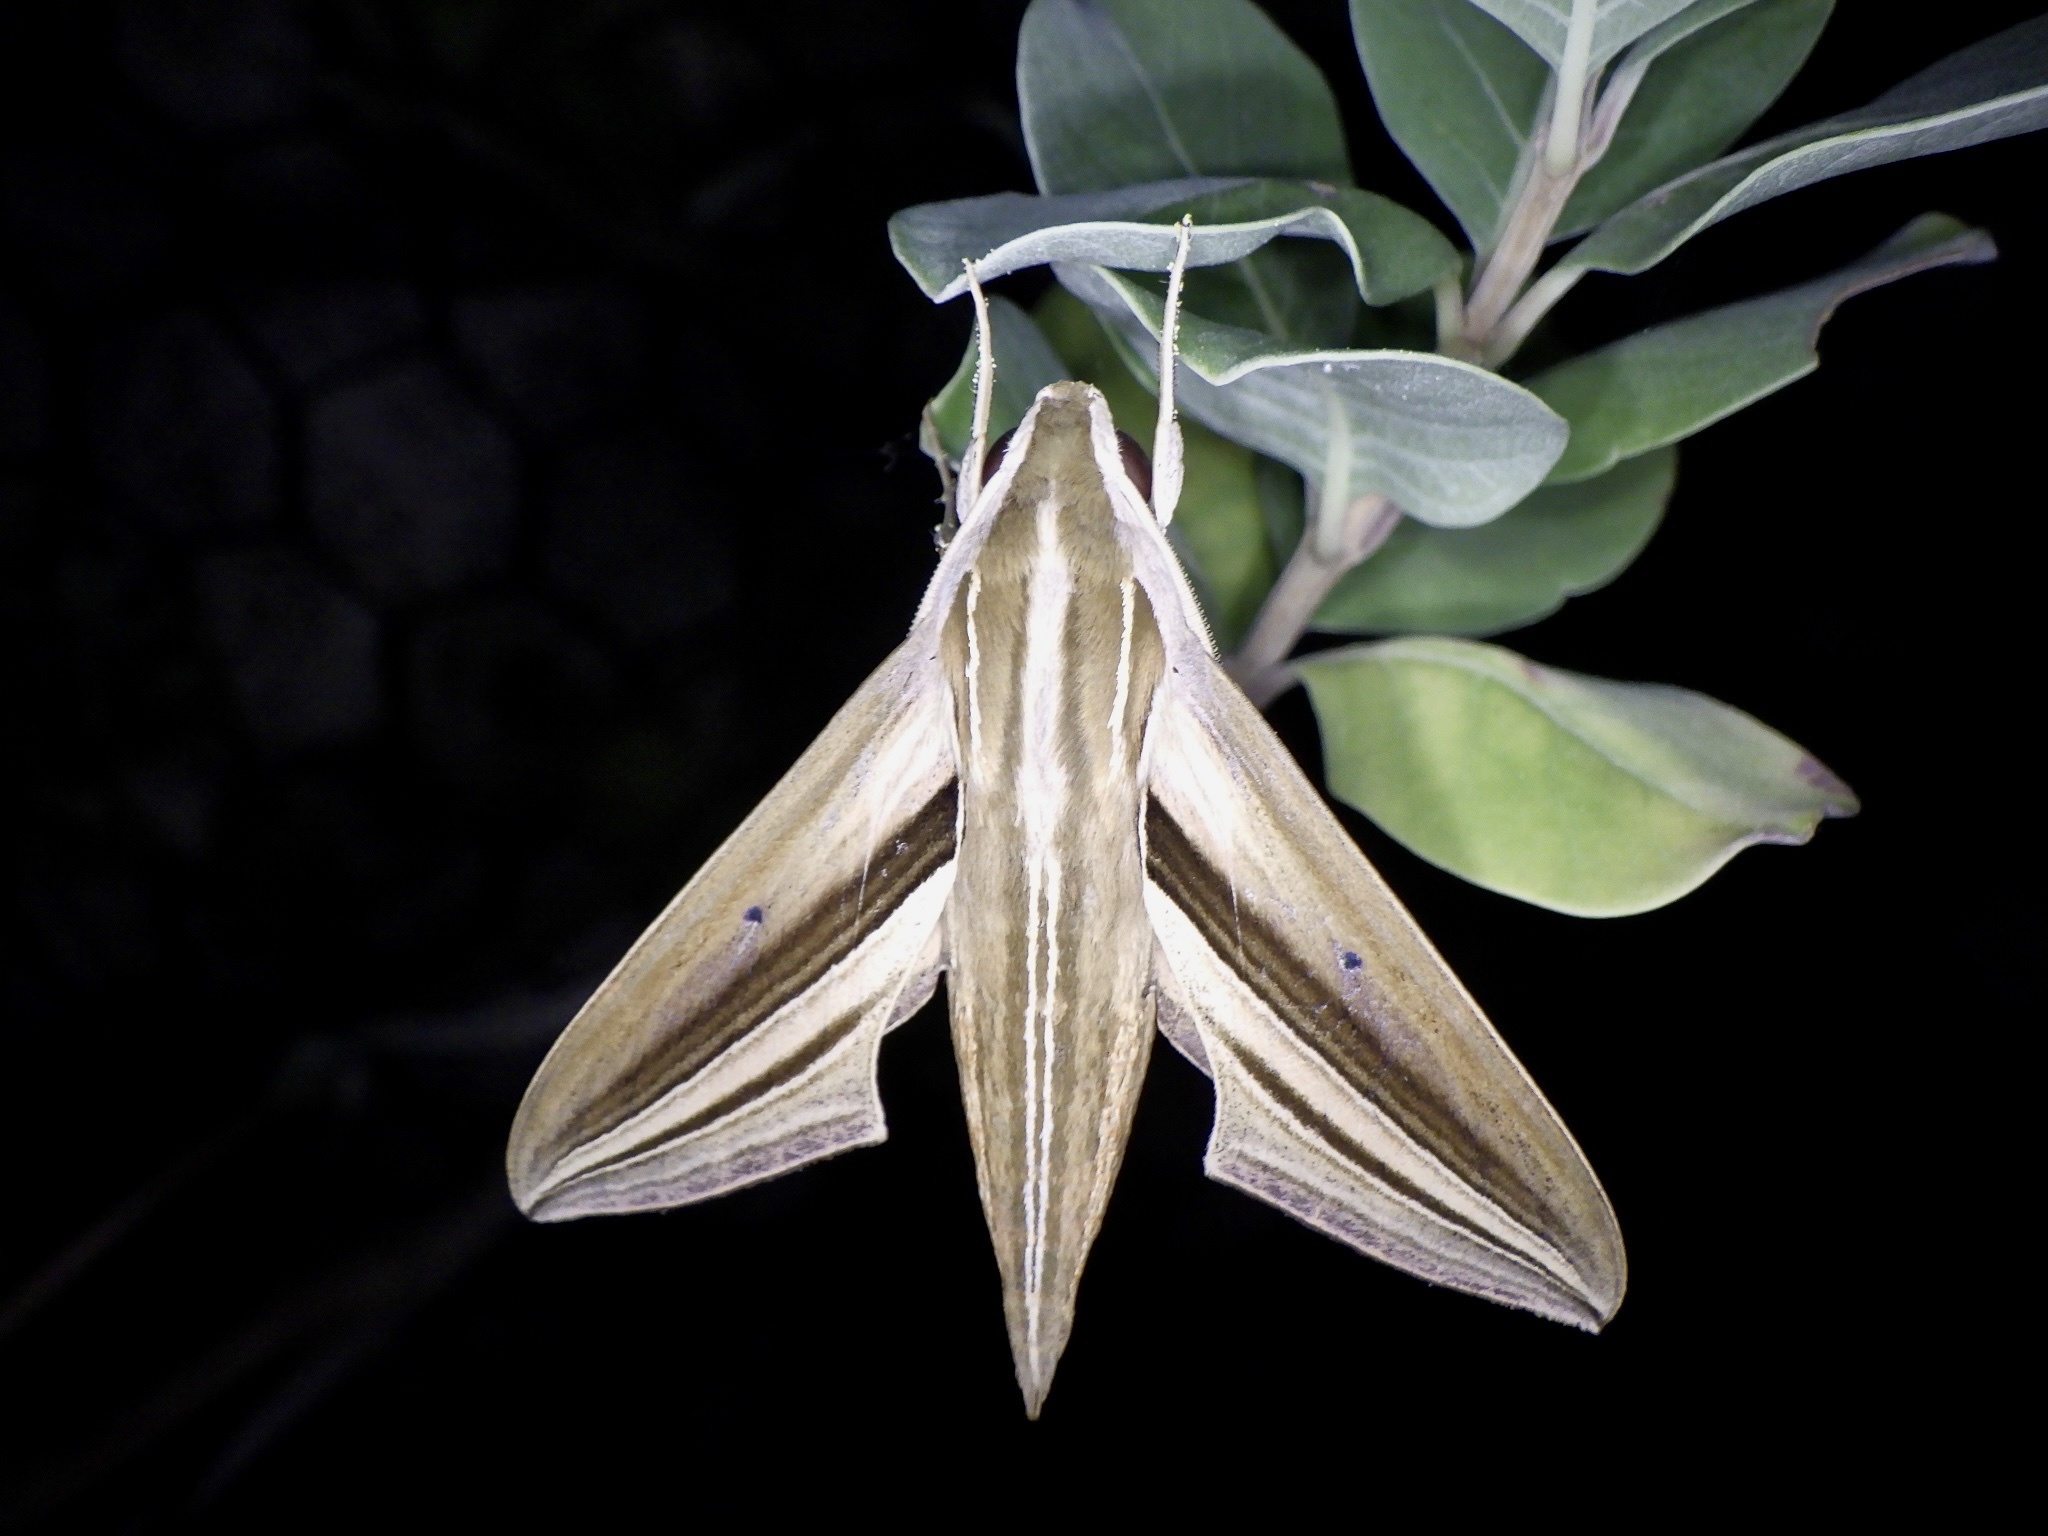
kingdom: Animalia
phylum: Arthropoda
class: Insecta
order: Lepidoptera
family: Sphingidae
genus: Theretra
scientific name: Theretra oldenlandiae
